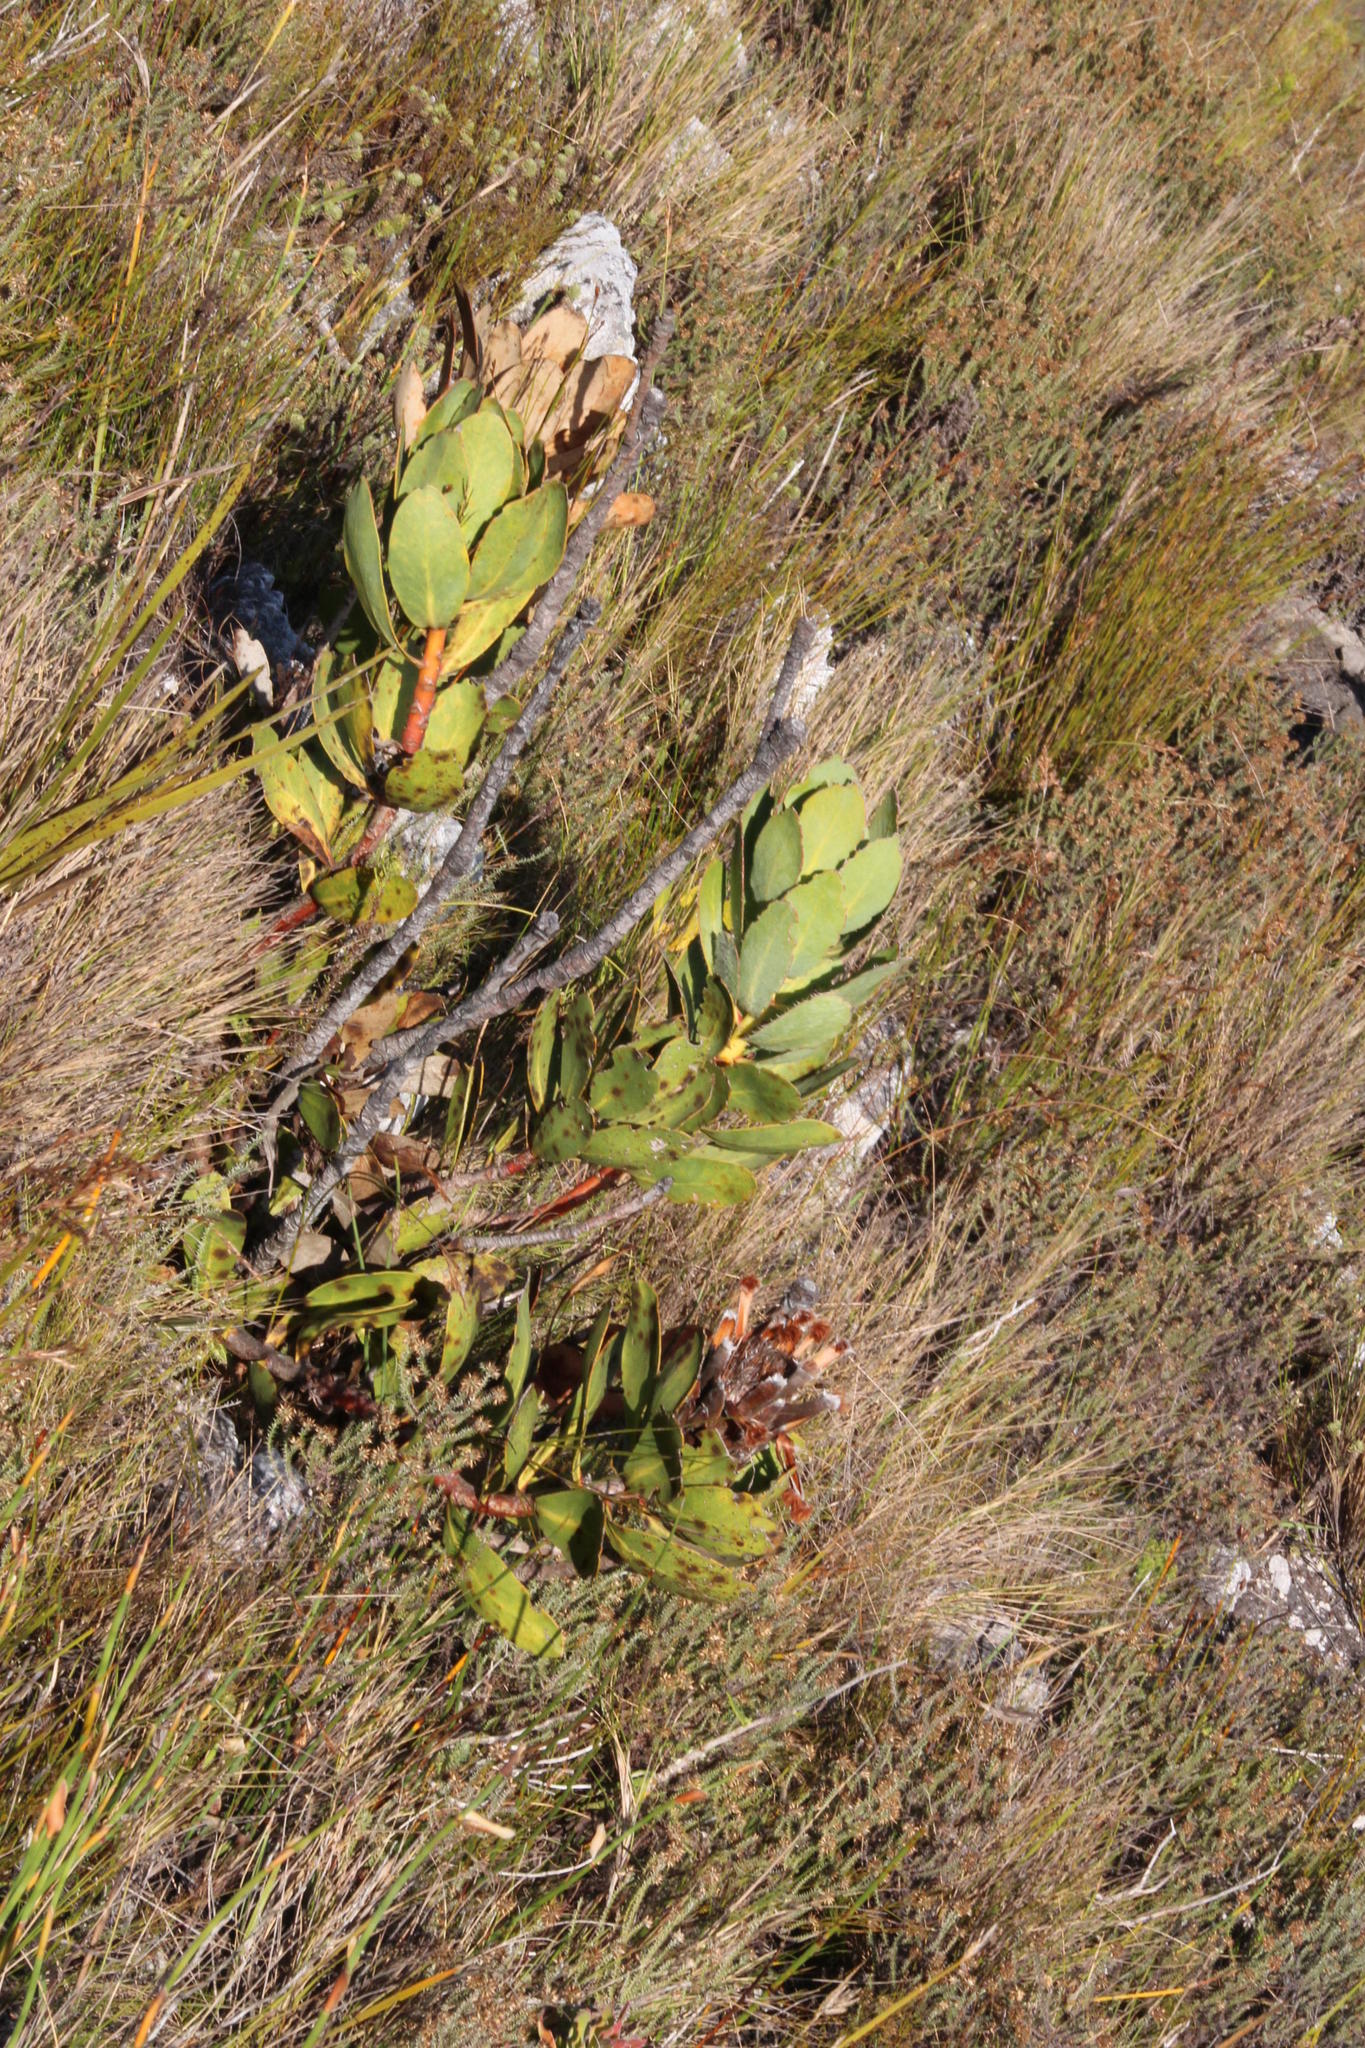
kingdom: Plantae
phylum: Tracheophyta
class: Magnoliopsida
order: Proteales
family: Proteaceae
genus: Protea
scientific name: Protea speciosa
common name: Brown-beard sugarbush
